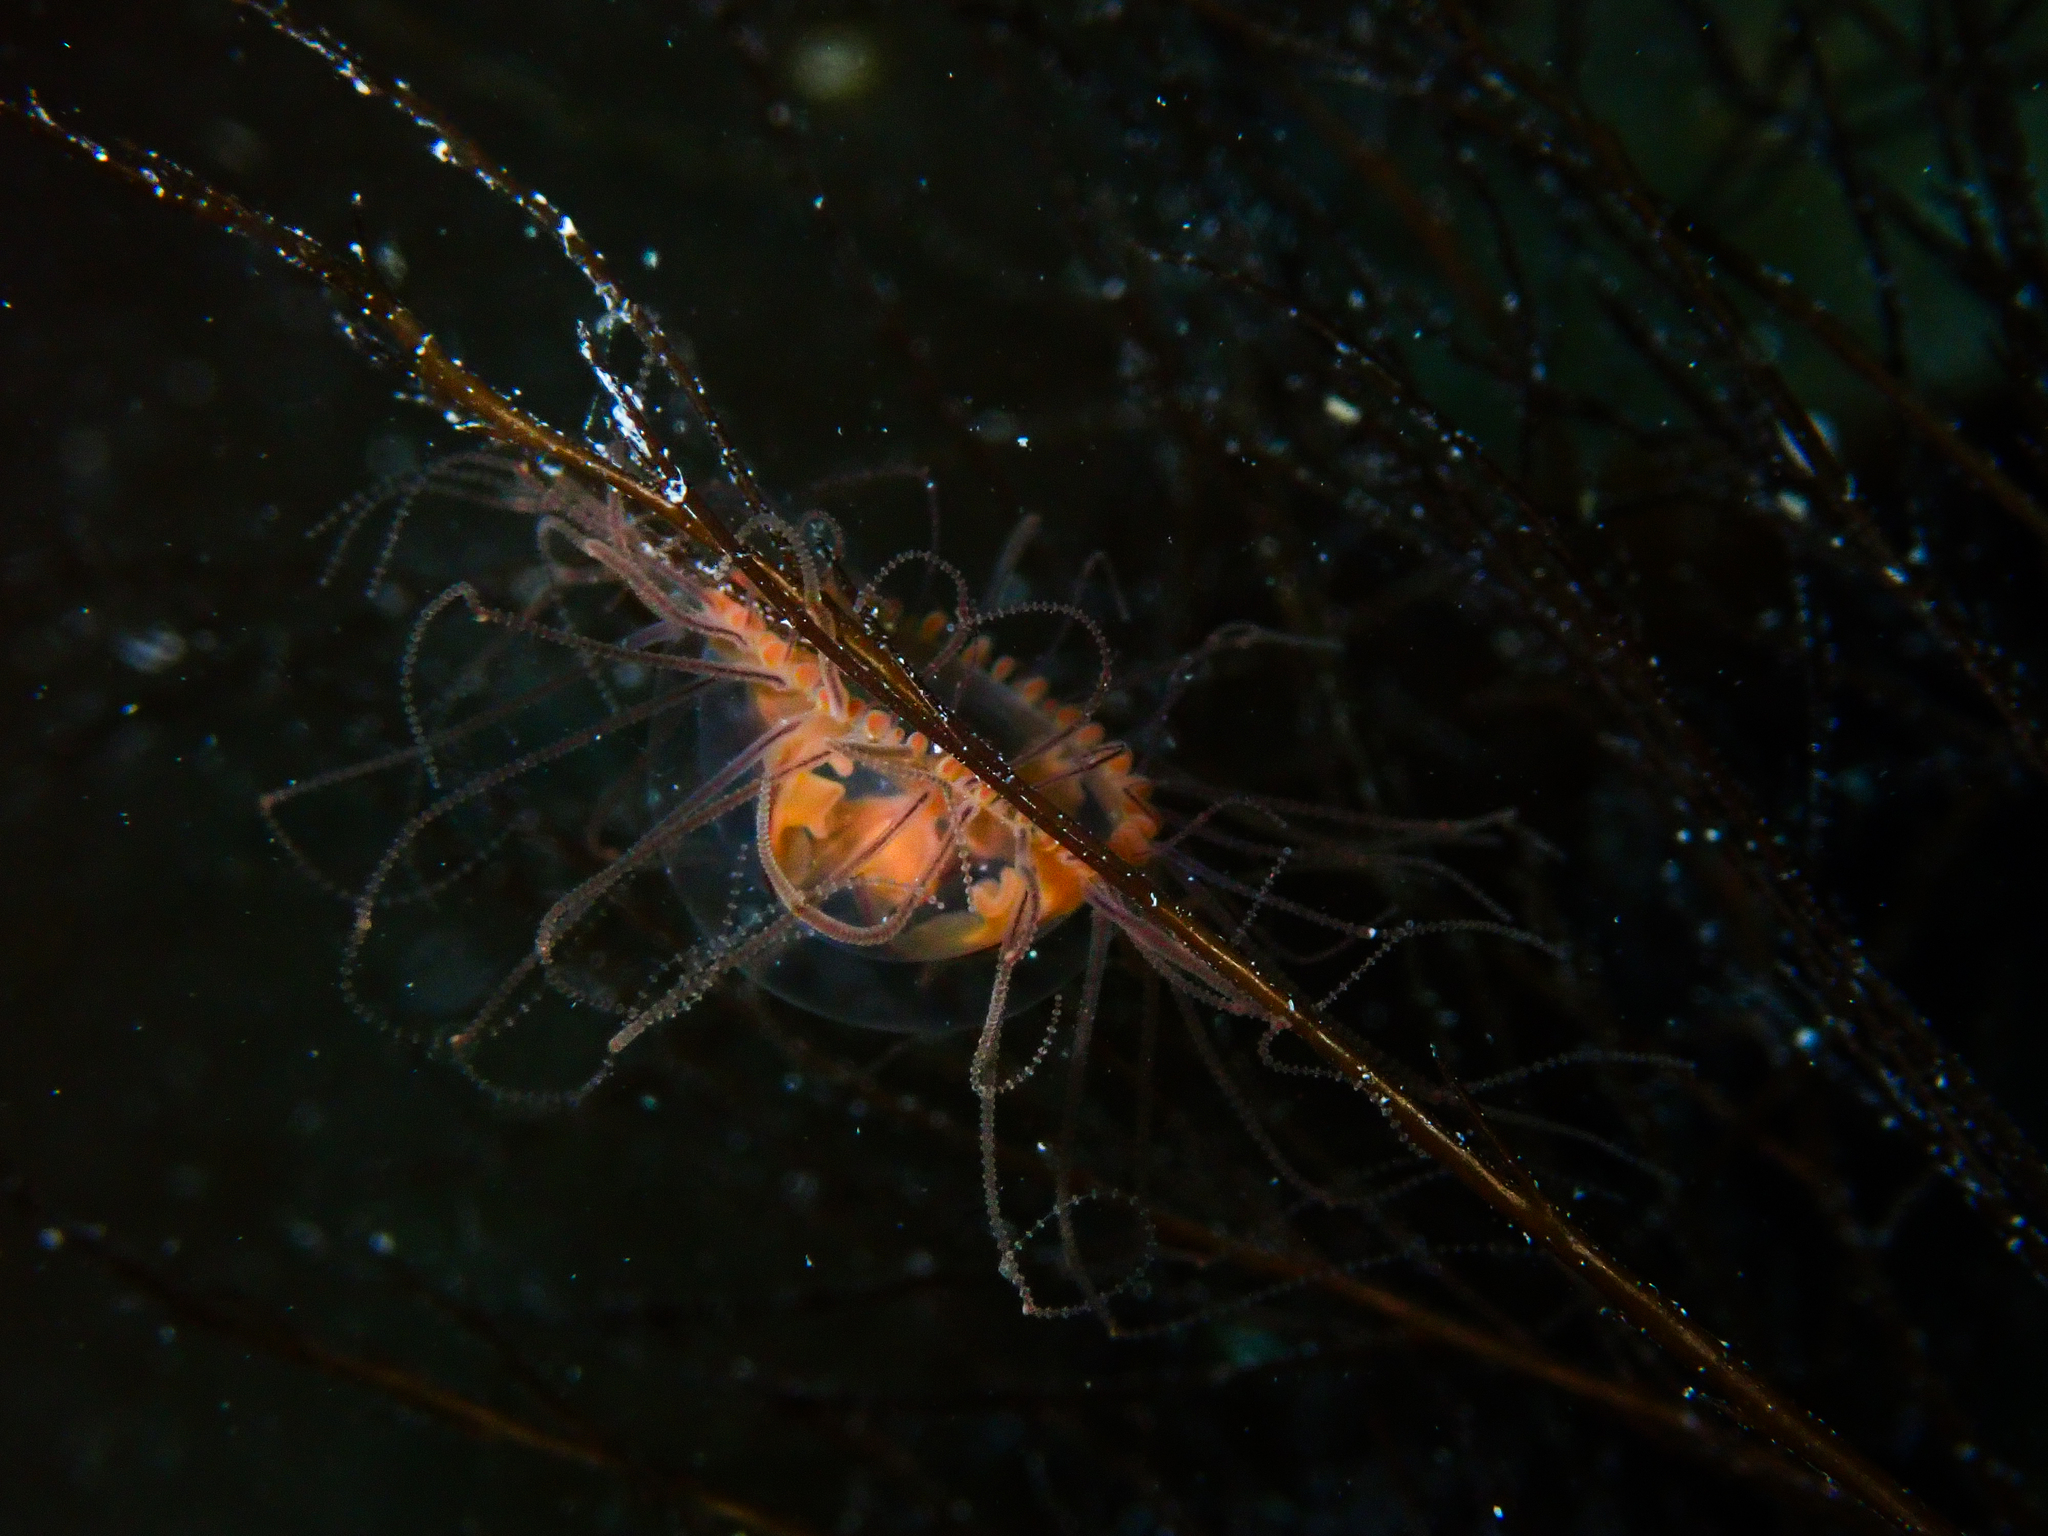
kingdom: Animalia
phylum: Cnidaria
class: Hydrozoa
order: Limnomedusae
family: Olindiidae
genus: Gonionemus
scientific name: Gonionemus vertens
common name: Clinging jellyfish
